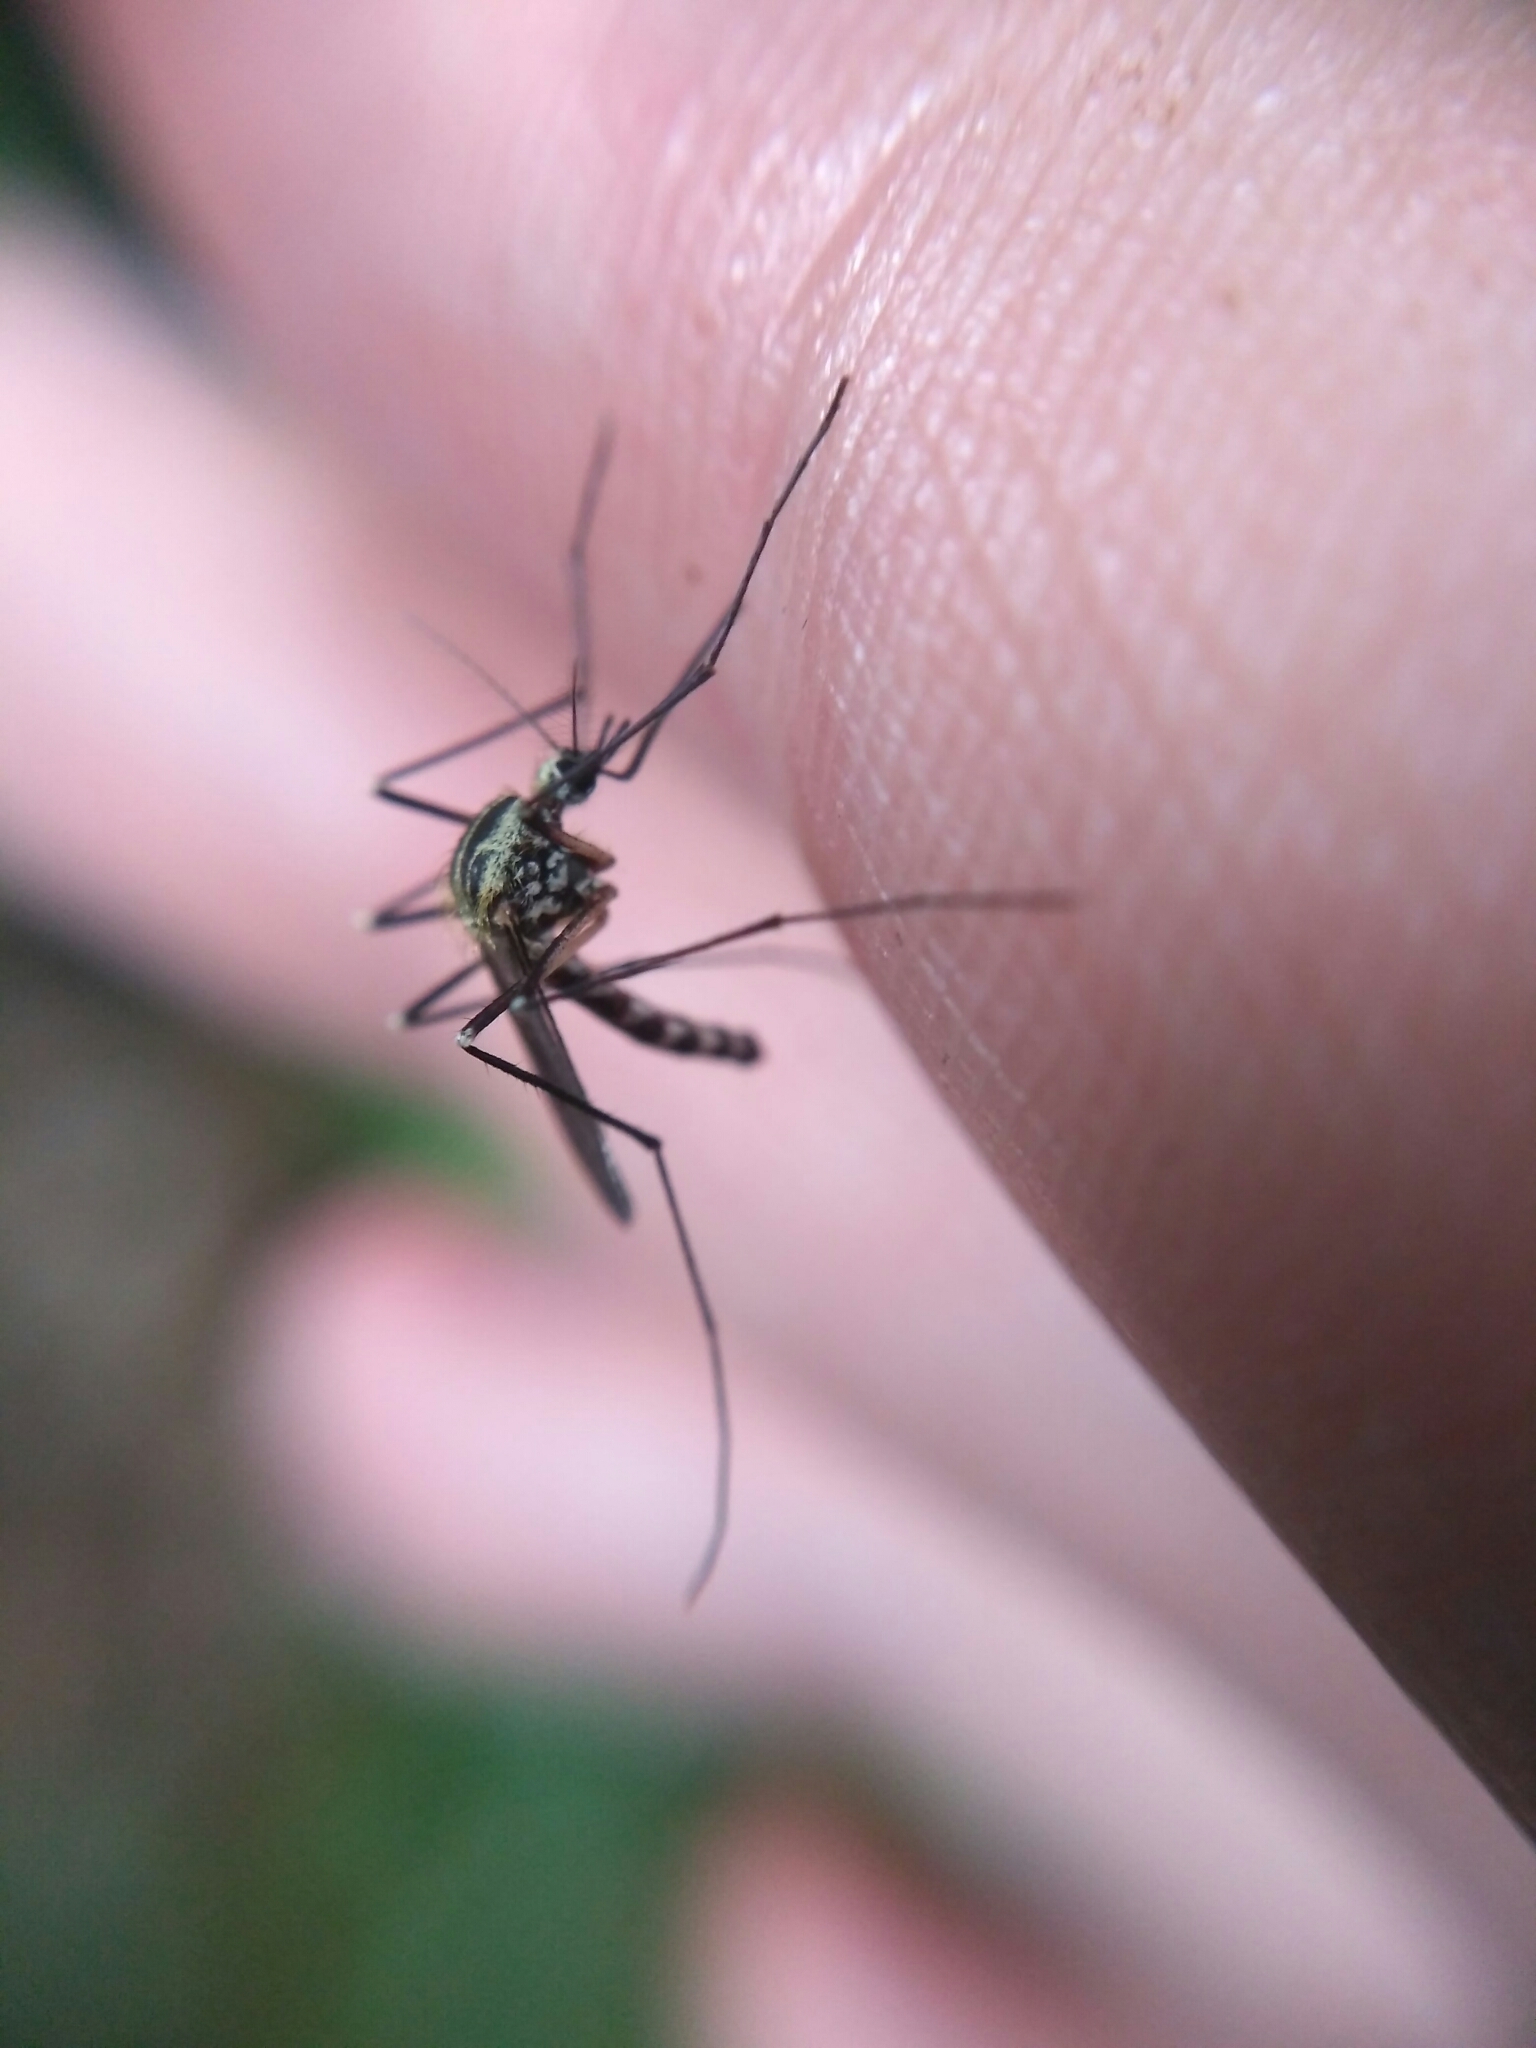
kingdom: Animalia
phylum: Arthropoda
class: Insecta
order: Diptera
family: Culicidae
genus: Aedes
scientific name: Aedes geniculatus
